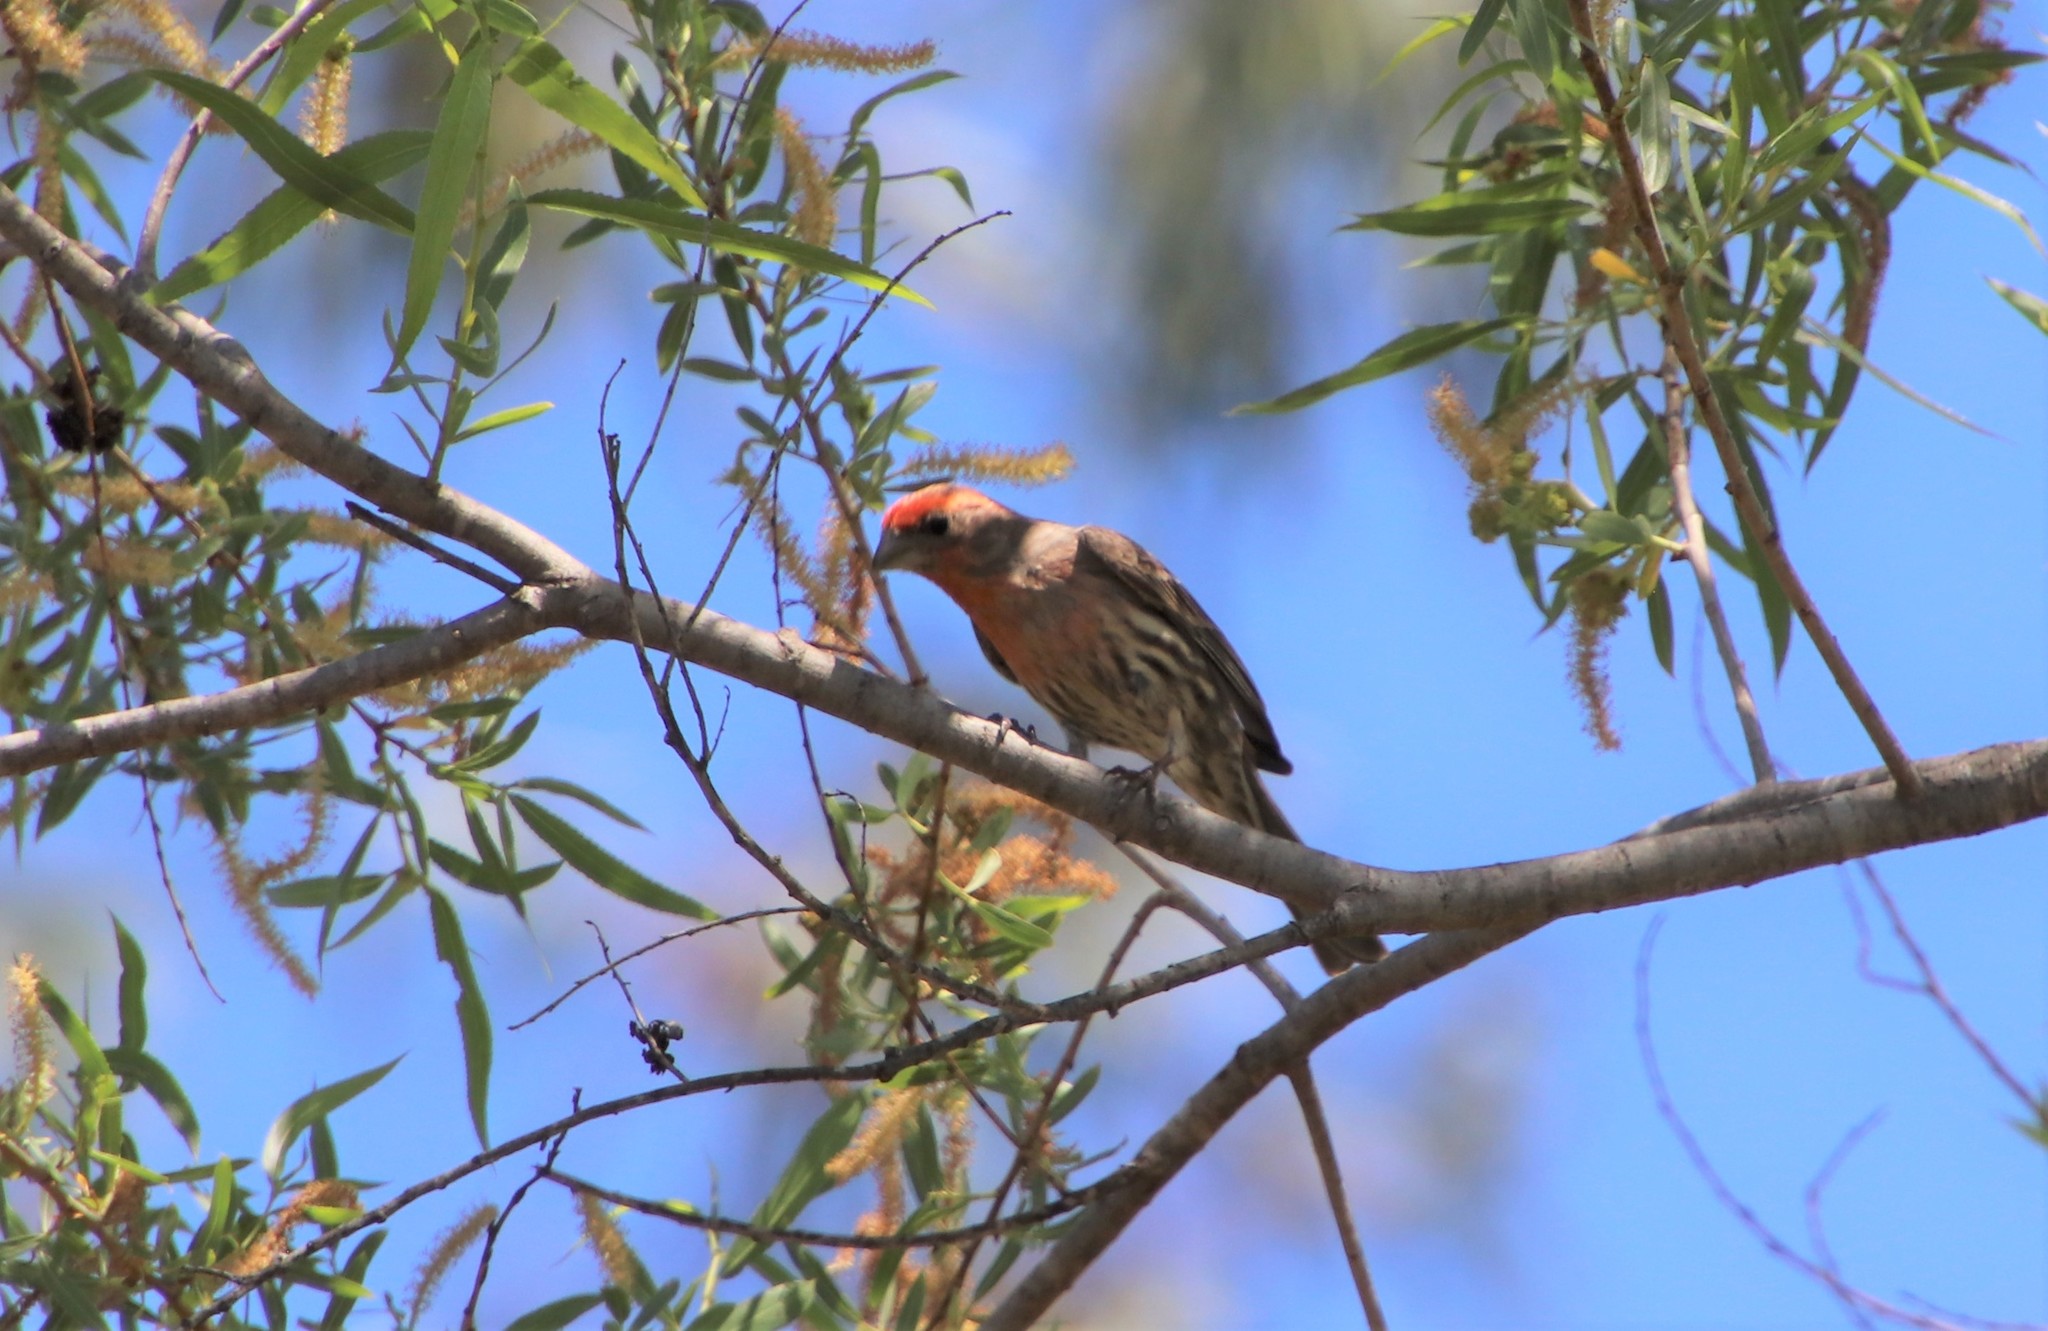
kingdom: Animalia
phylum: Chordata
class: Aves
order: Passeriformes
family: Fringillidae
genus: Haemorhous
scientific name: Haemorhous mexicanus
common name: House finch
